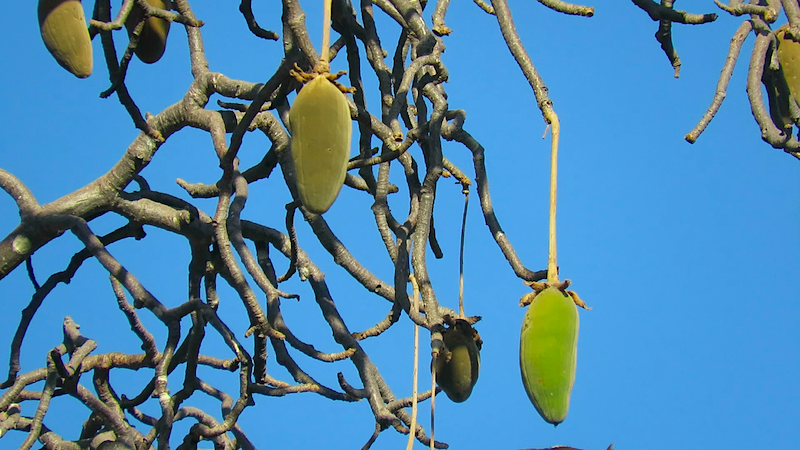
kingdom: Plantae
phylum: Tracheophyta
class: Magnoliopsida
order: Malvales
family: Malvaceae
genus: Adansonia
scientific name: Adansonia digitata
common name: Dead-rat-tree
